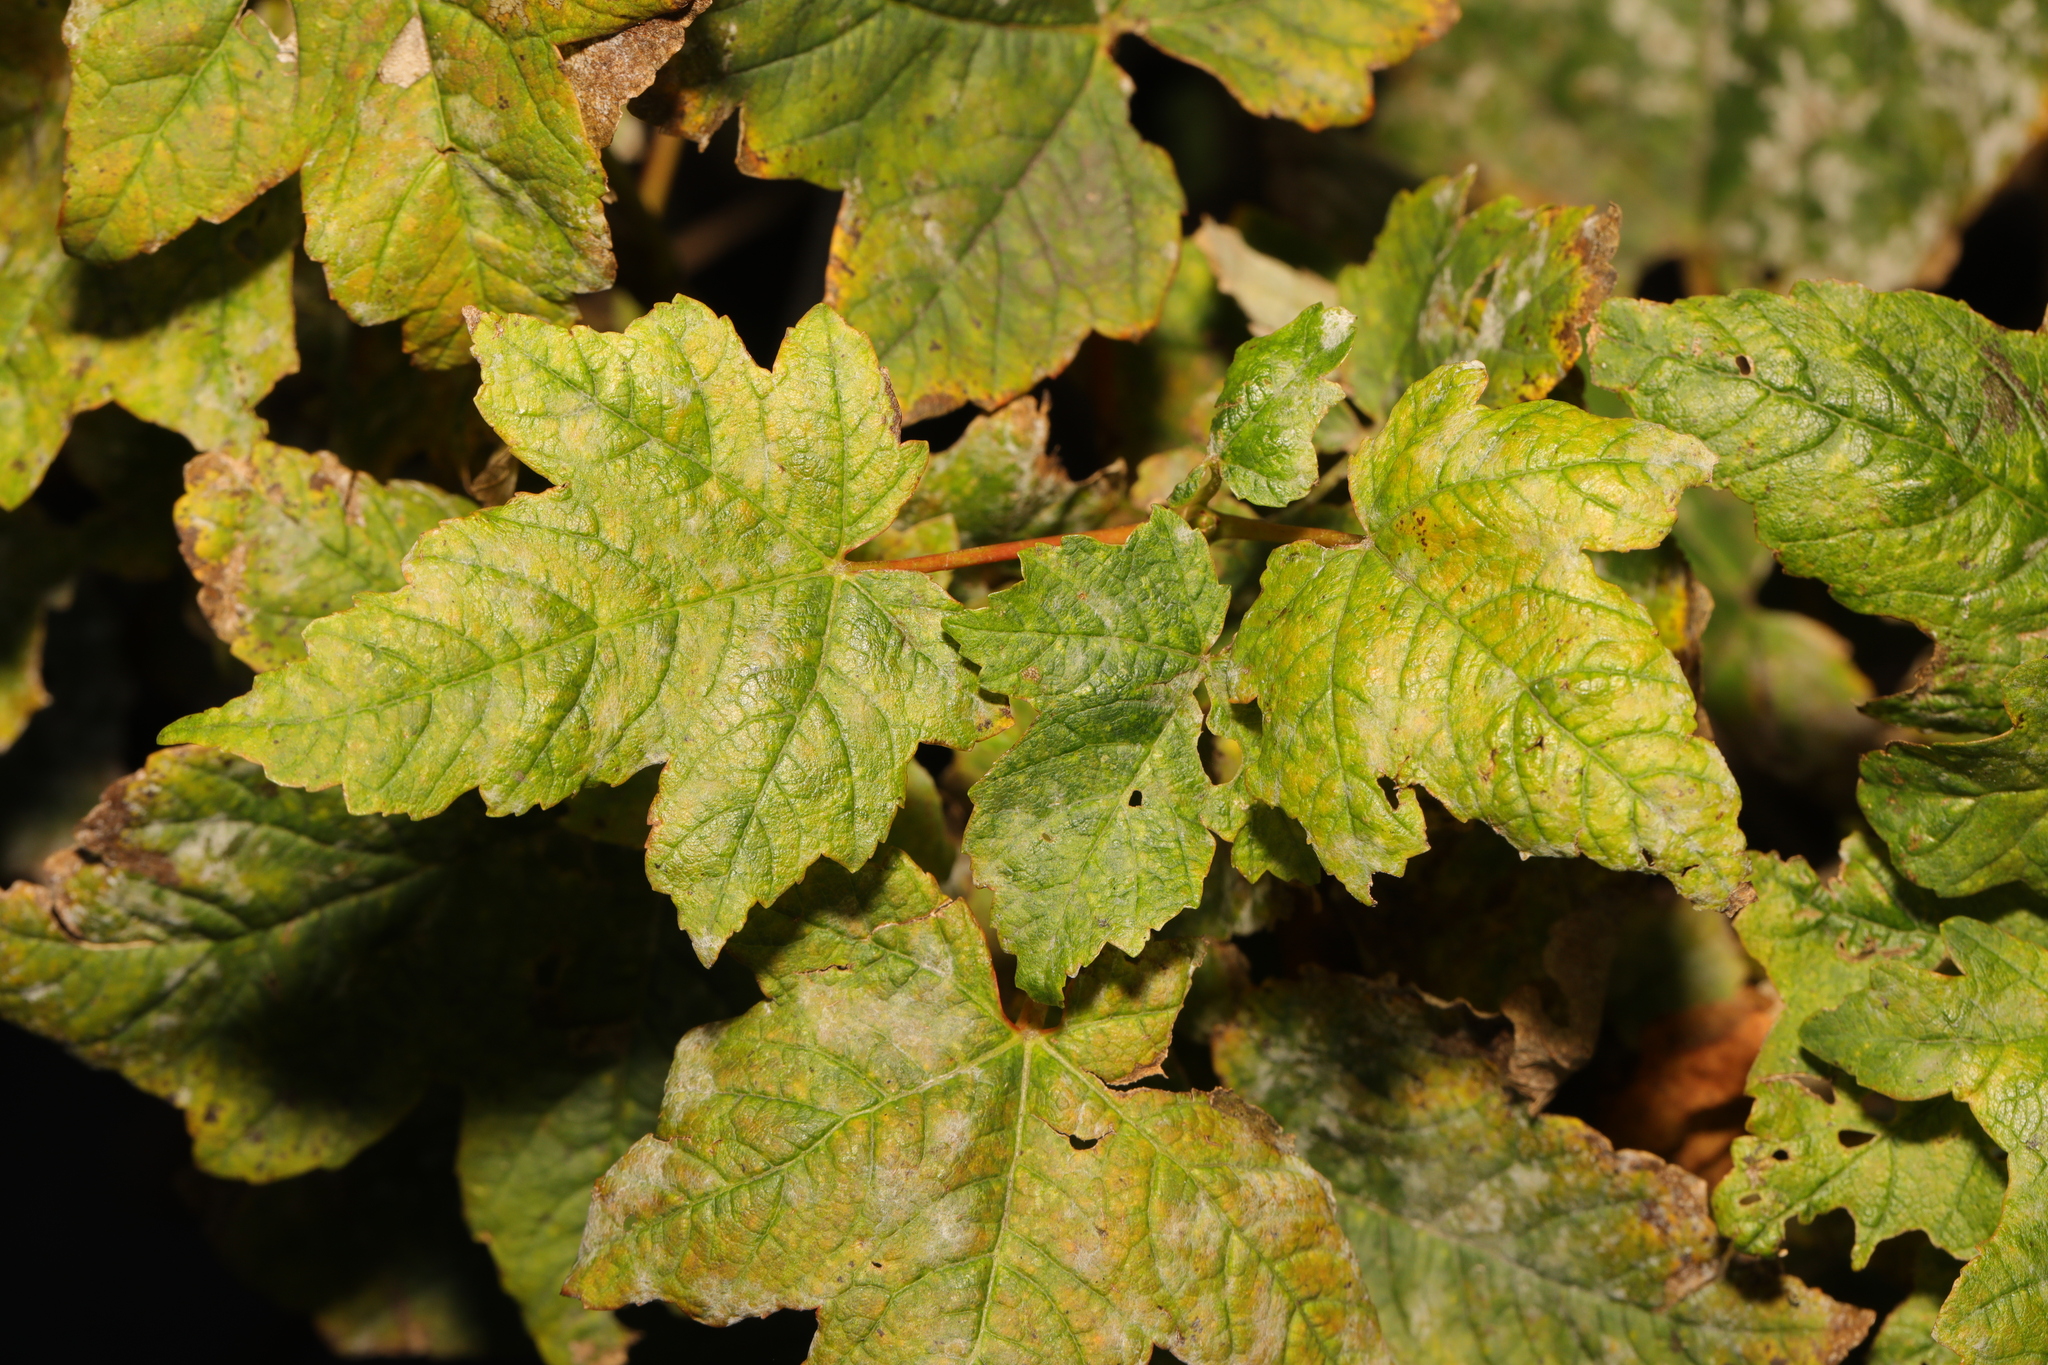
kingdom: Plantae
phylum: Tracheophyta
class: Magnoliopsida
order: Sapindales
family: Sapindaceae
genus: Acer
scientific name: Acer pseudoplatanus
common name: Sycamore
